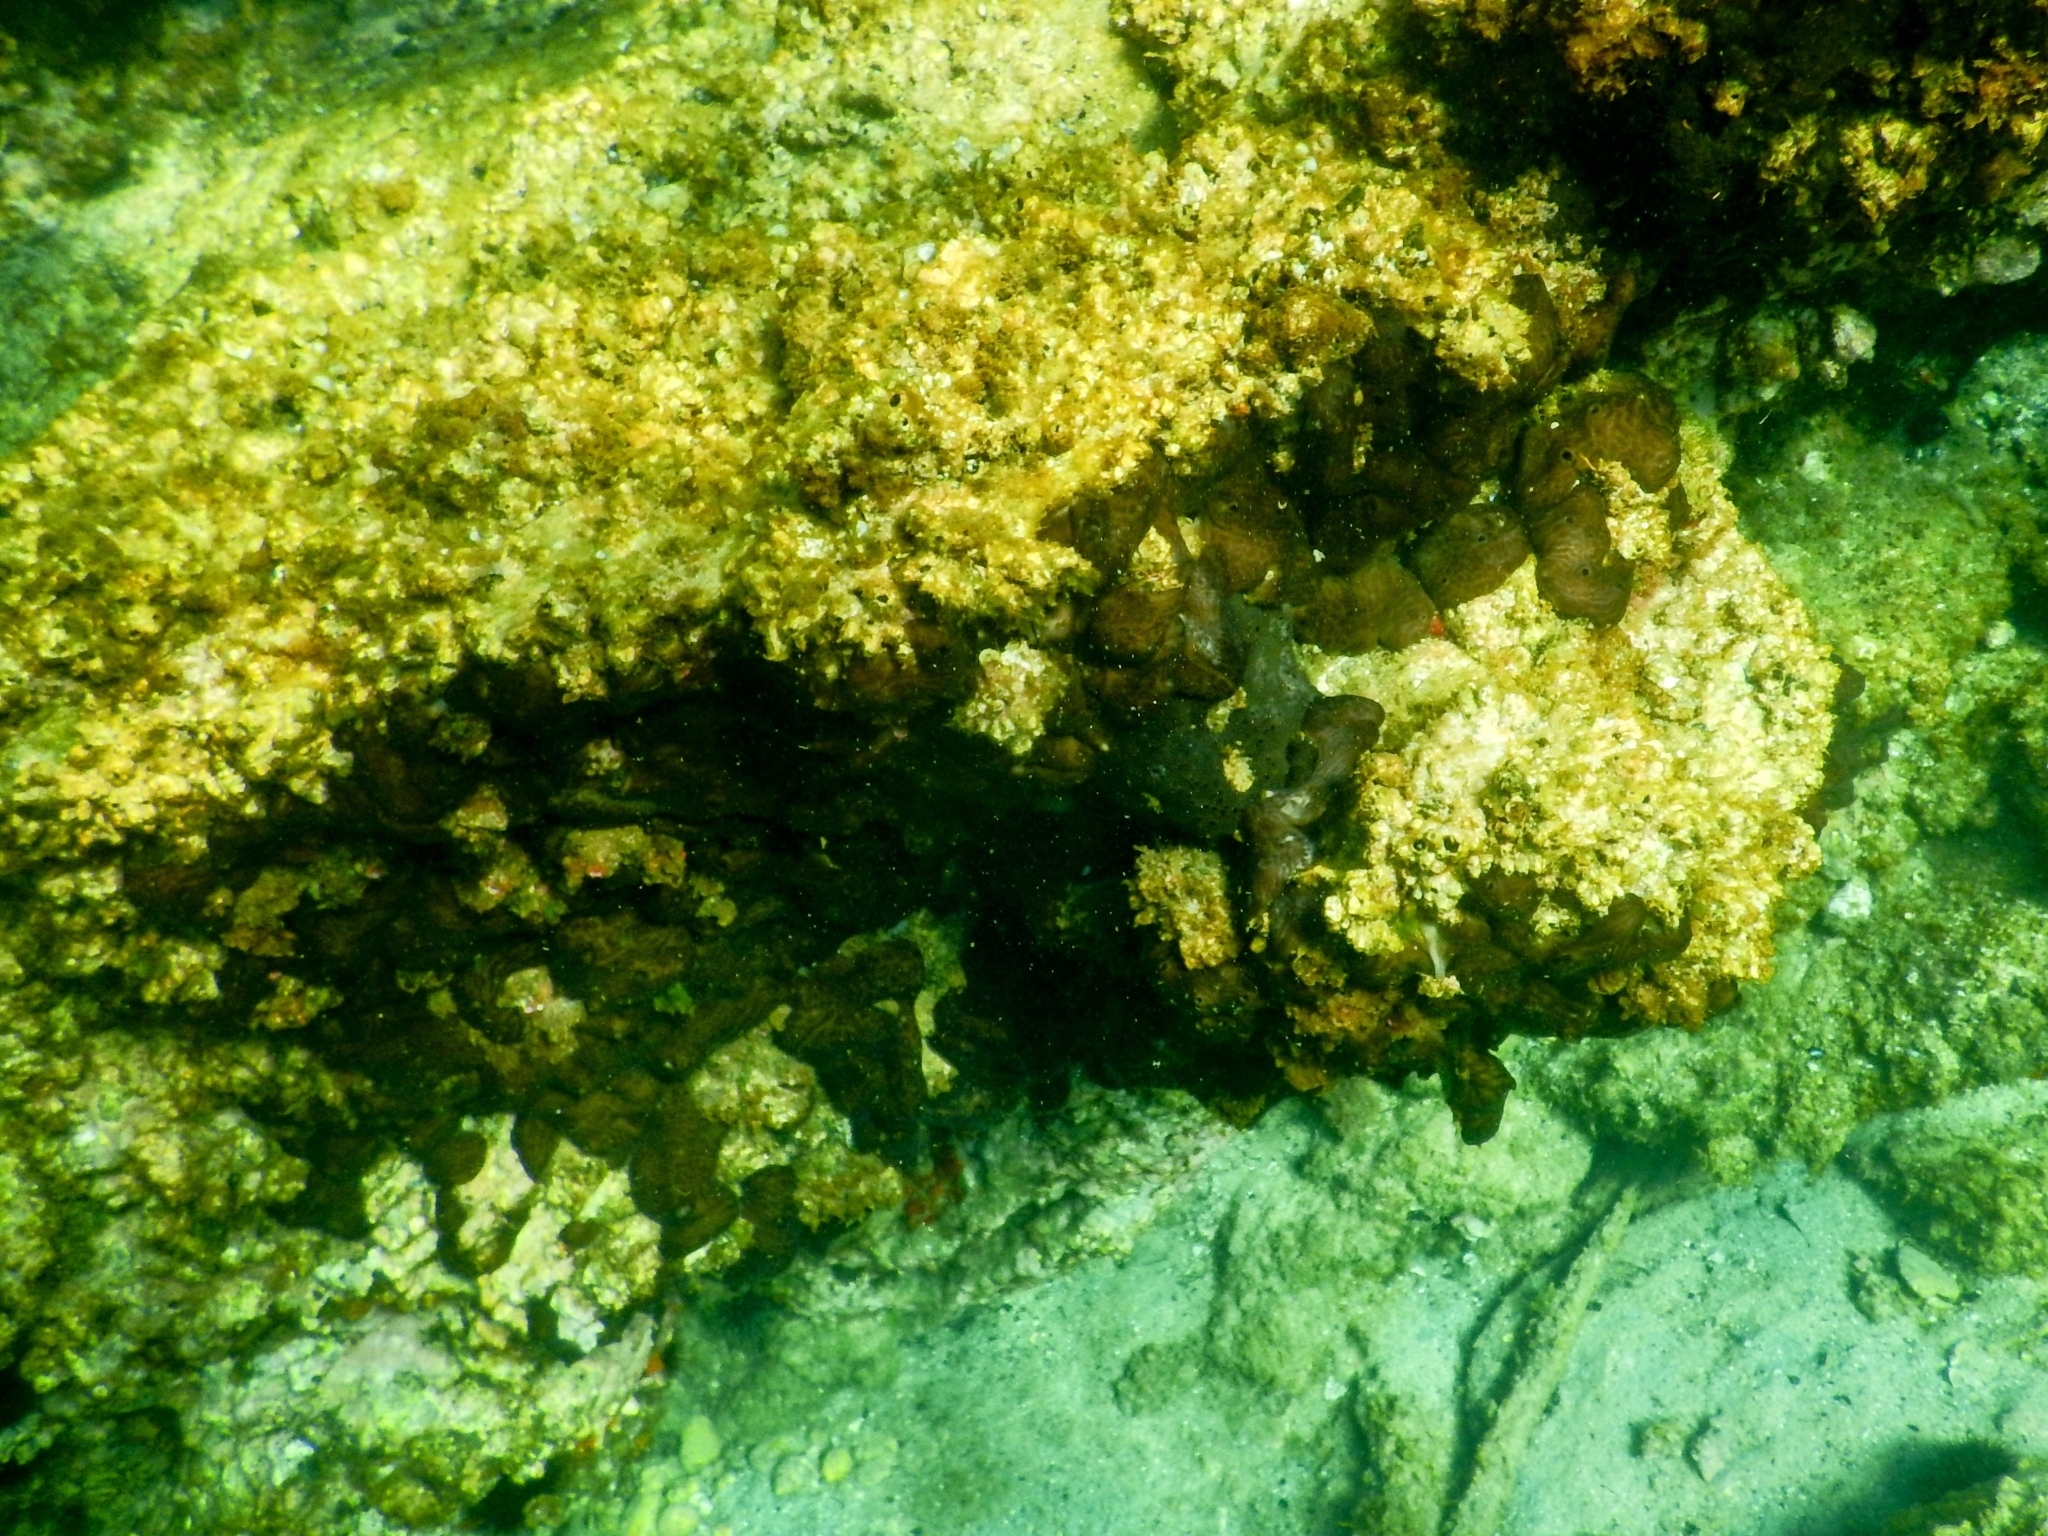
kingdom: Animalia
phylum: Porifera
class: Demospongiae
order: Chondrosiida
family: Chondrosiidae
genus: Chondrosia
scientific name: Chondrosia reniformis
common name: Chicken liver sponge
